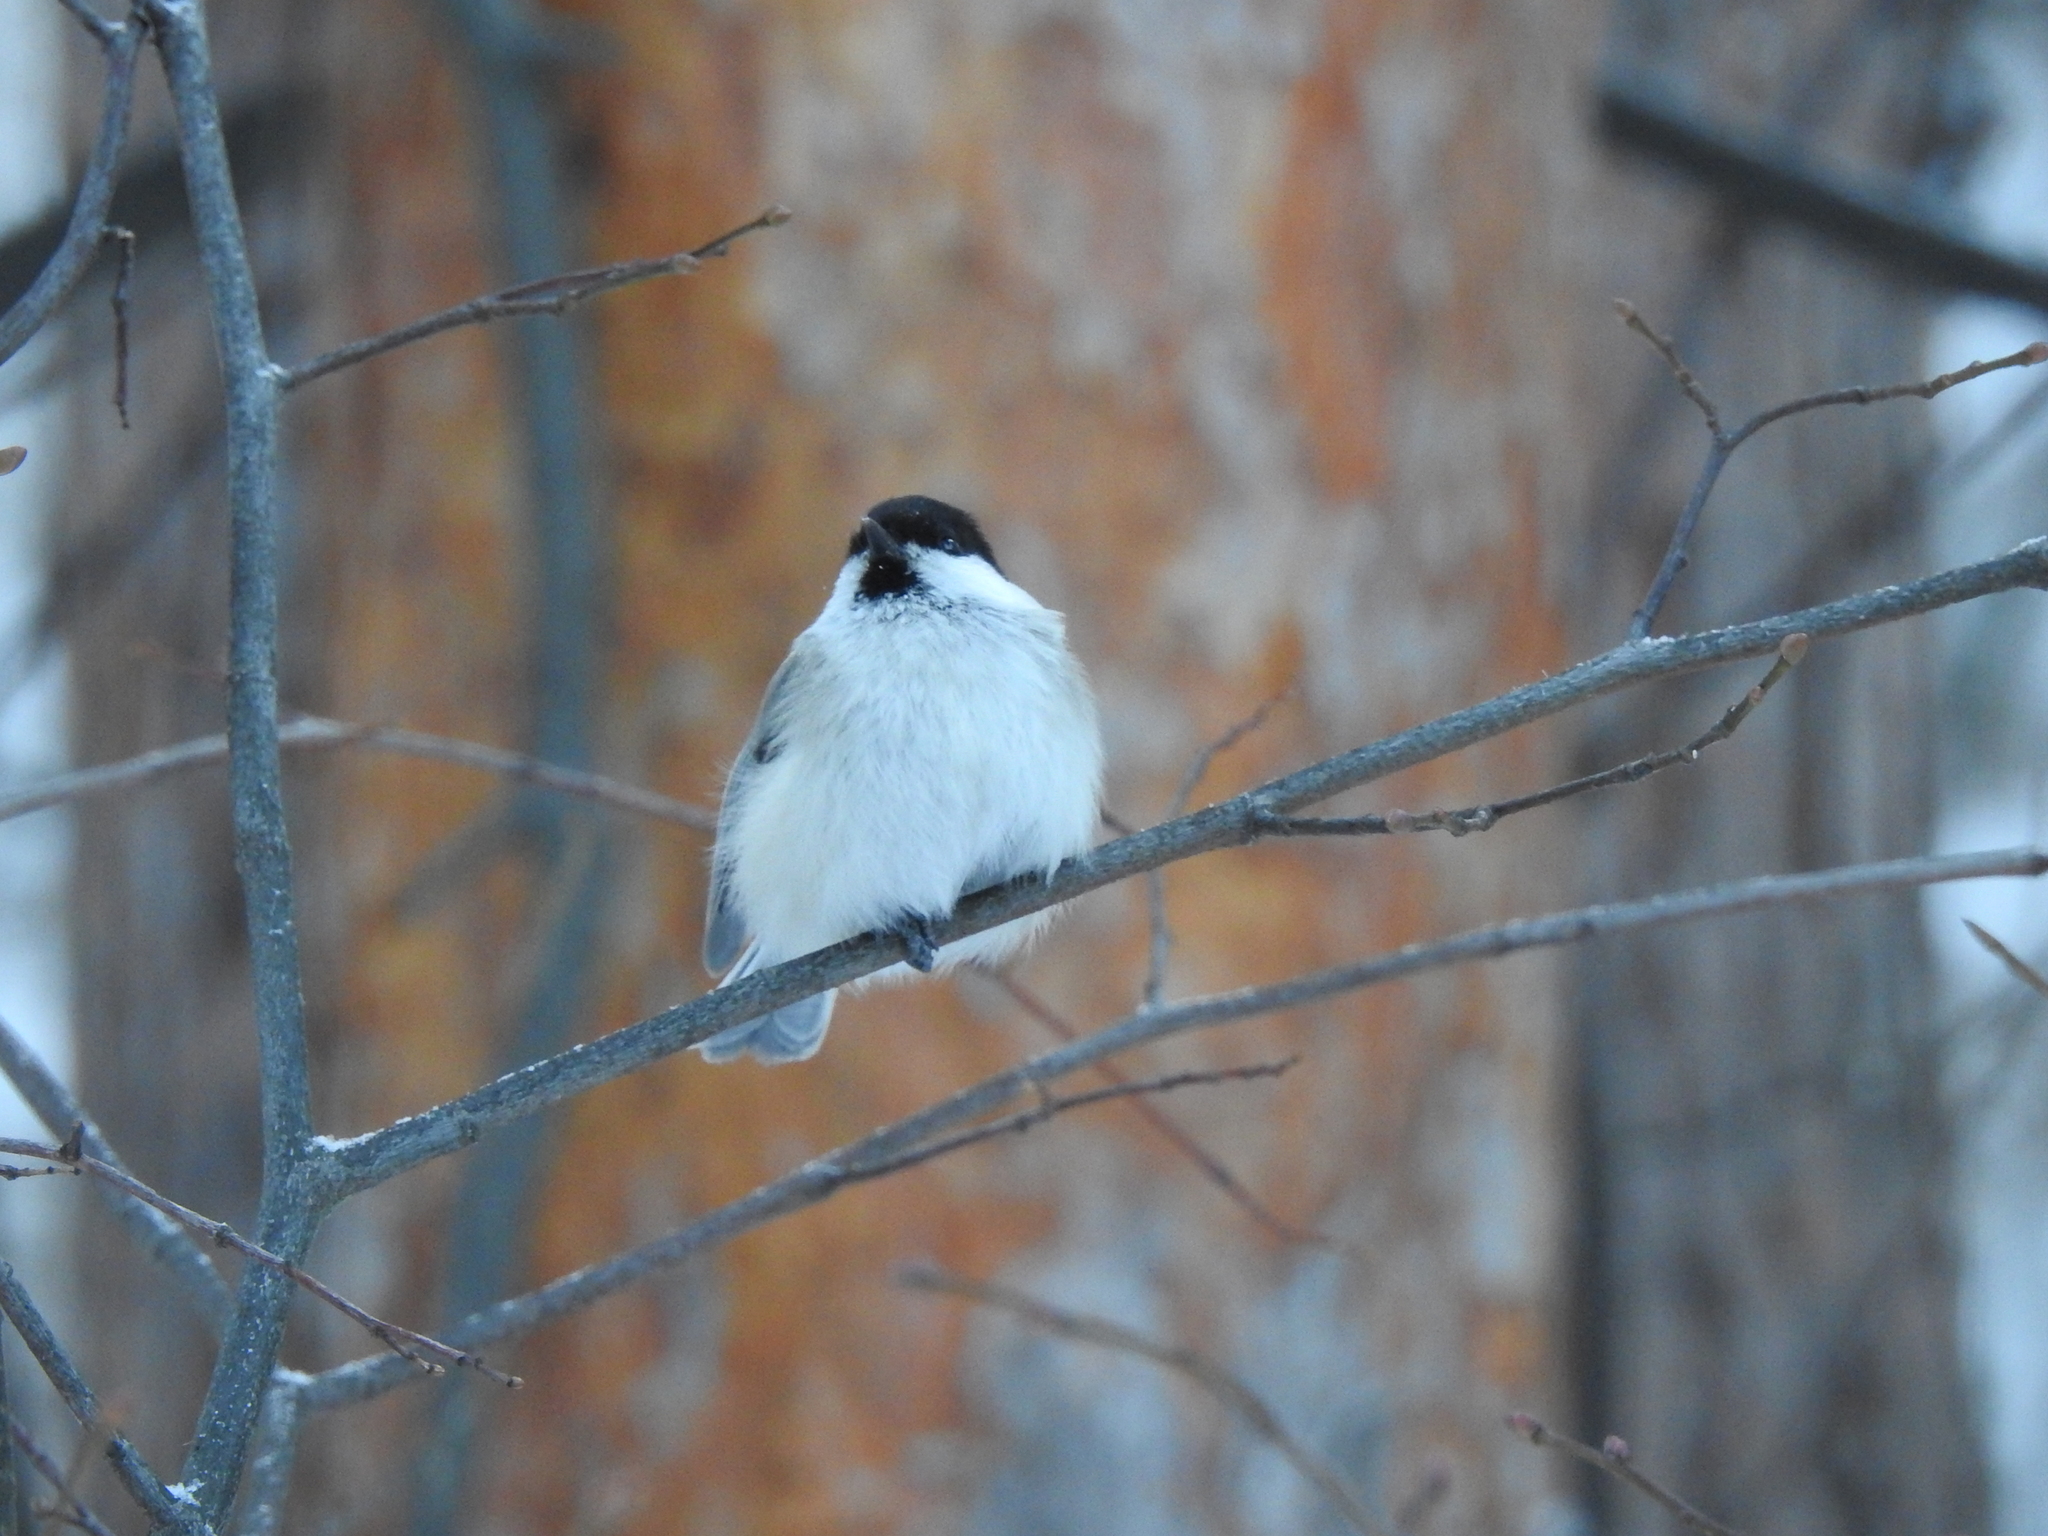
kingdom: Animalia
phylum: Chordata
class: Aves
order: Passeriformes
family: Paridae
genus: Poecile
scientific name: Poecile montanus
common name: Willow tit
